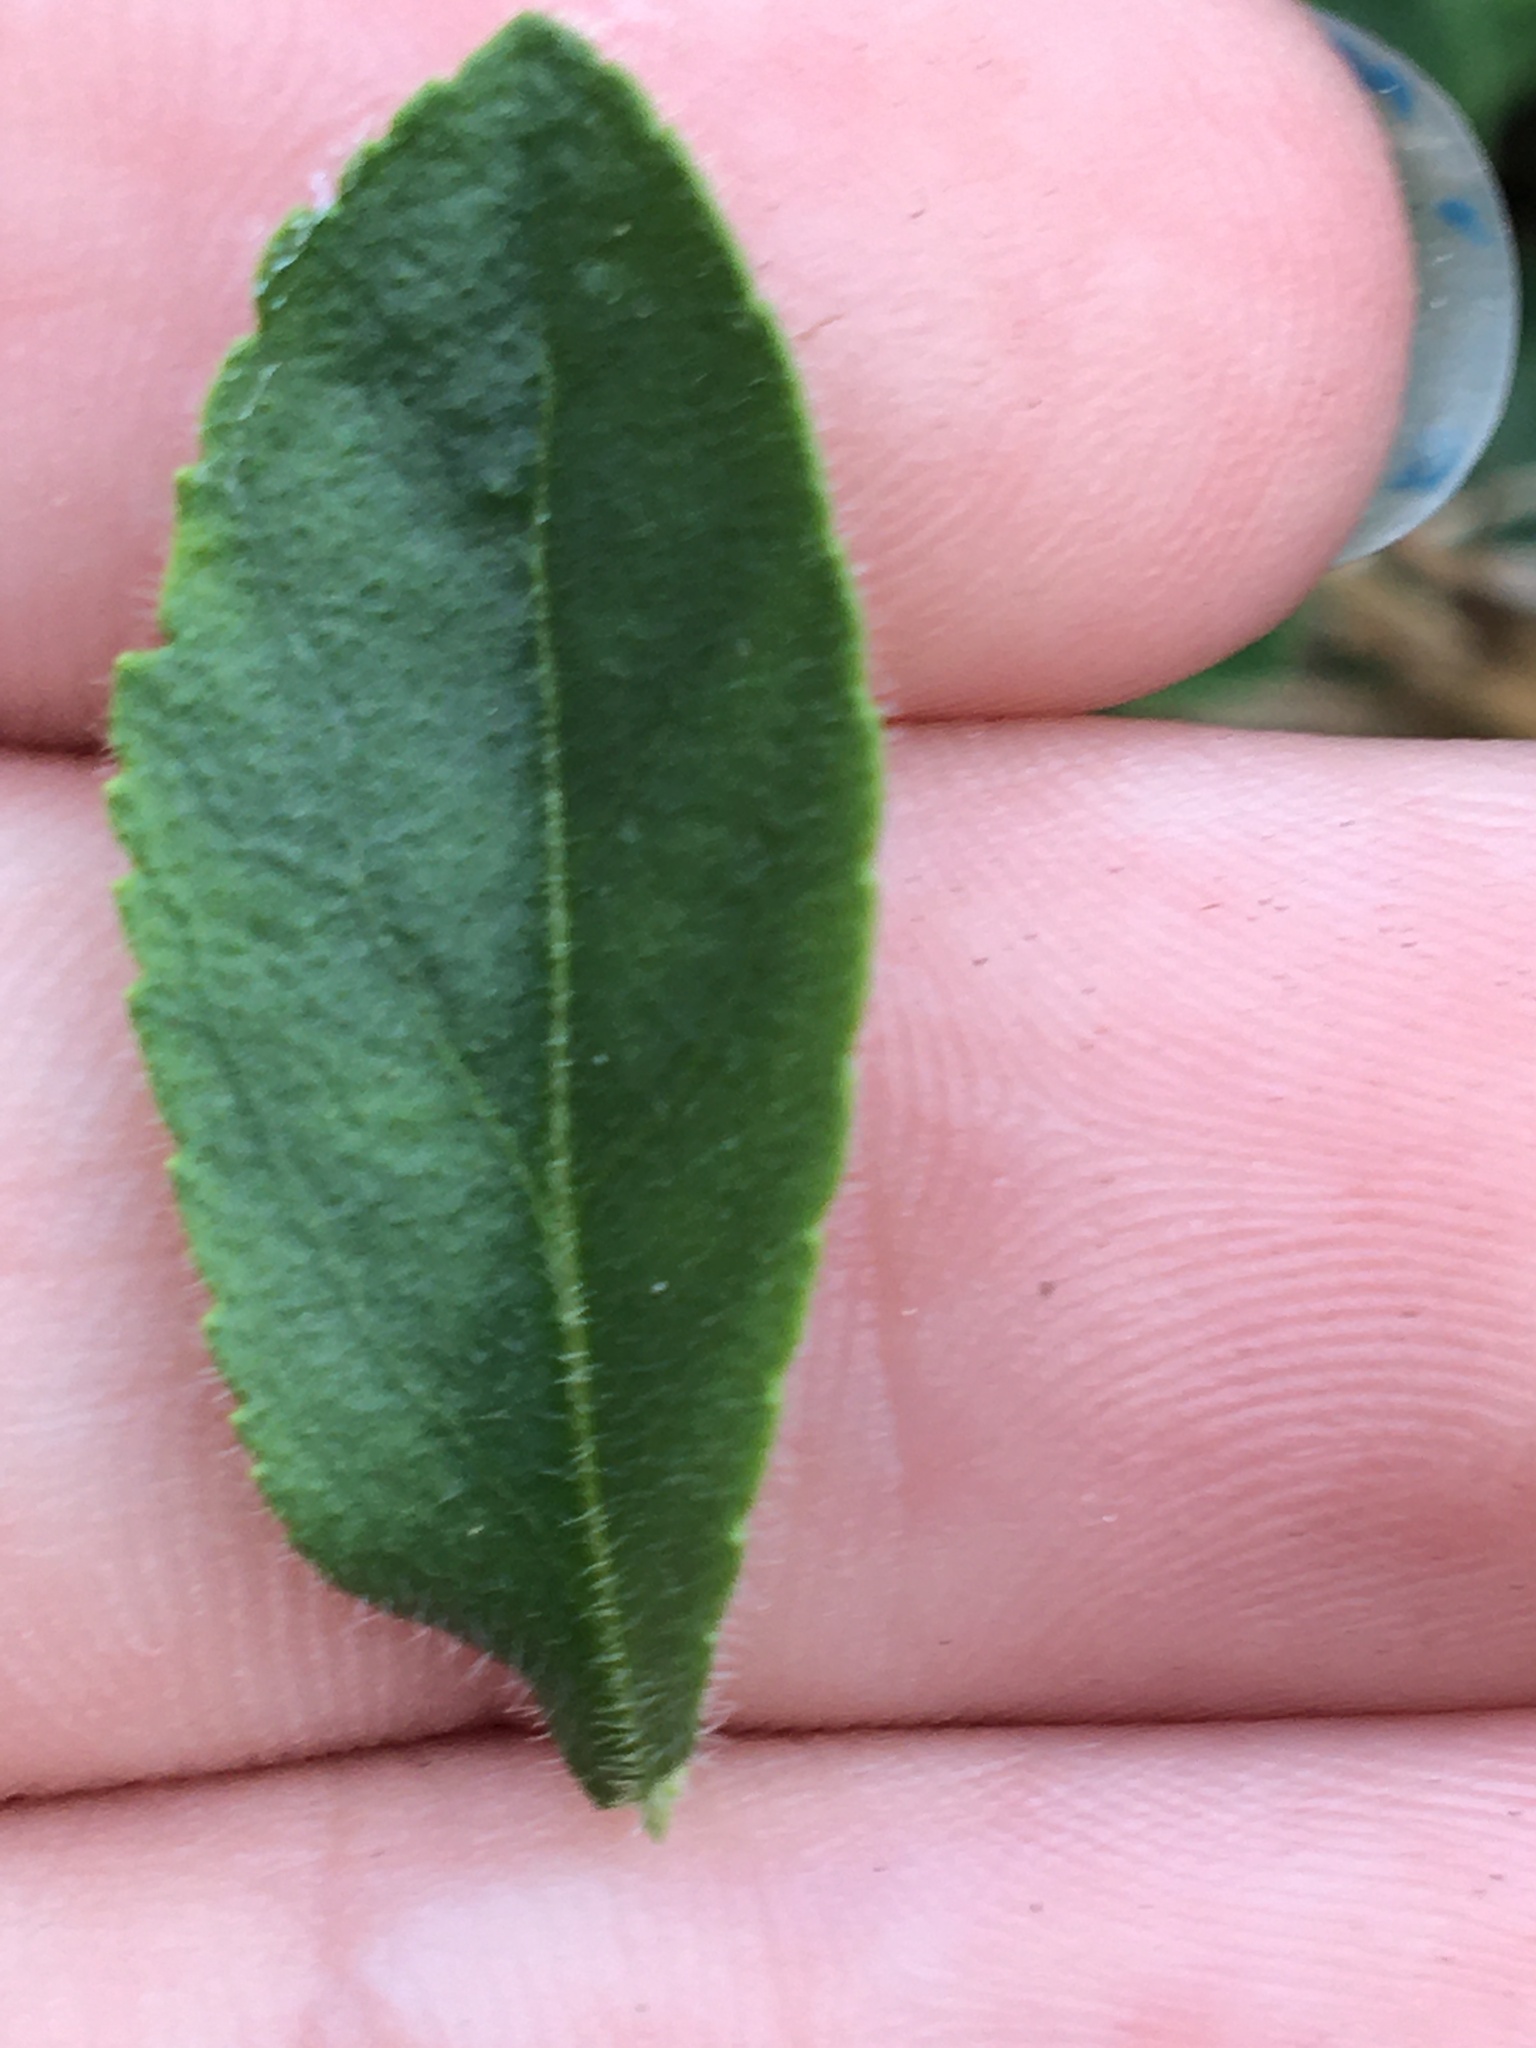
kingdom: Plantae
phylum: Tracheophyta
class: Magnoliopsida
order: Lamiales
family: Plantaginaceae
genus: Veronica
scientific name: Veronica officinalis
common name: Common speedwell
